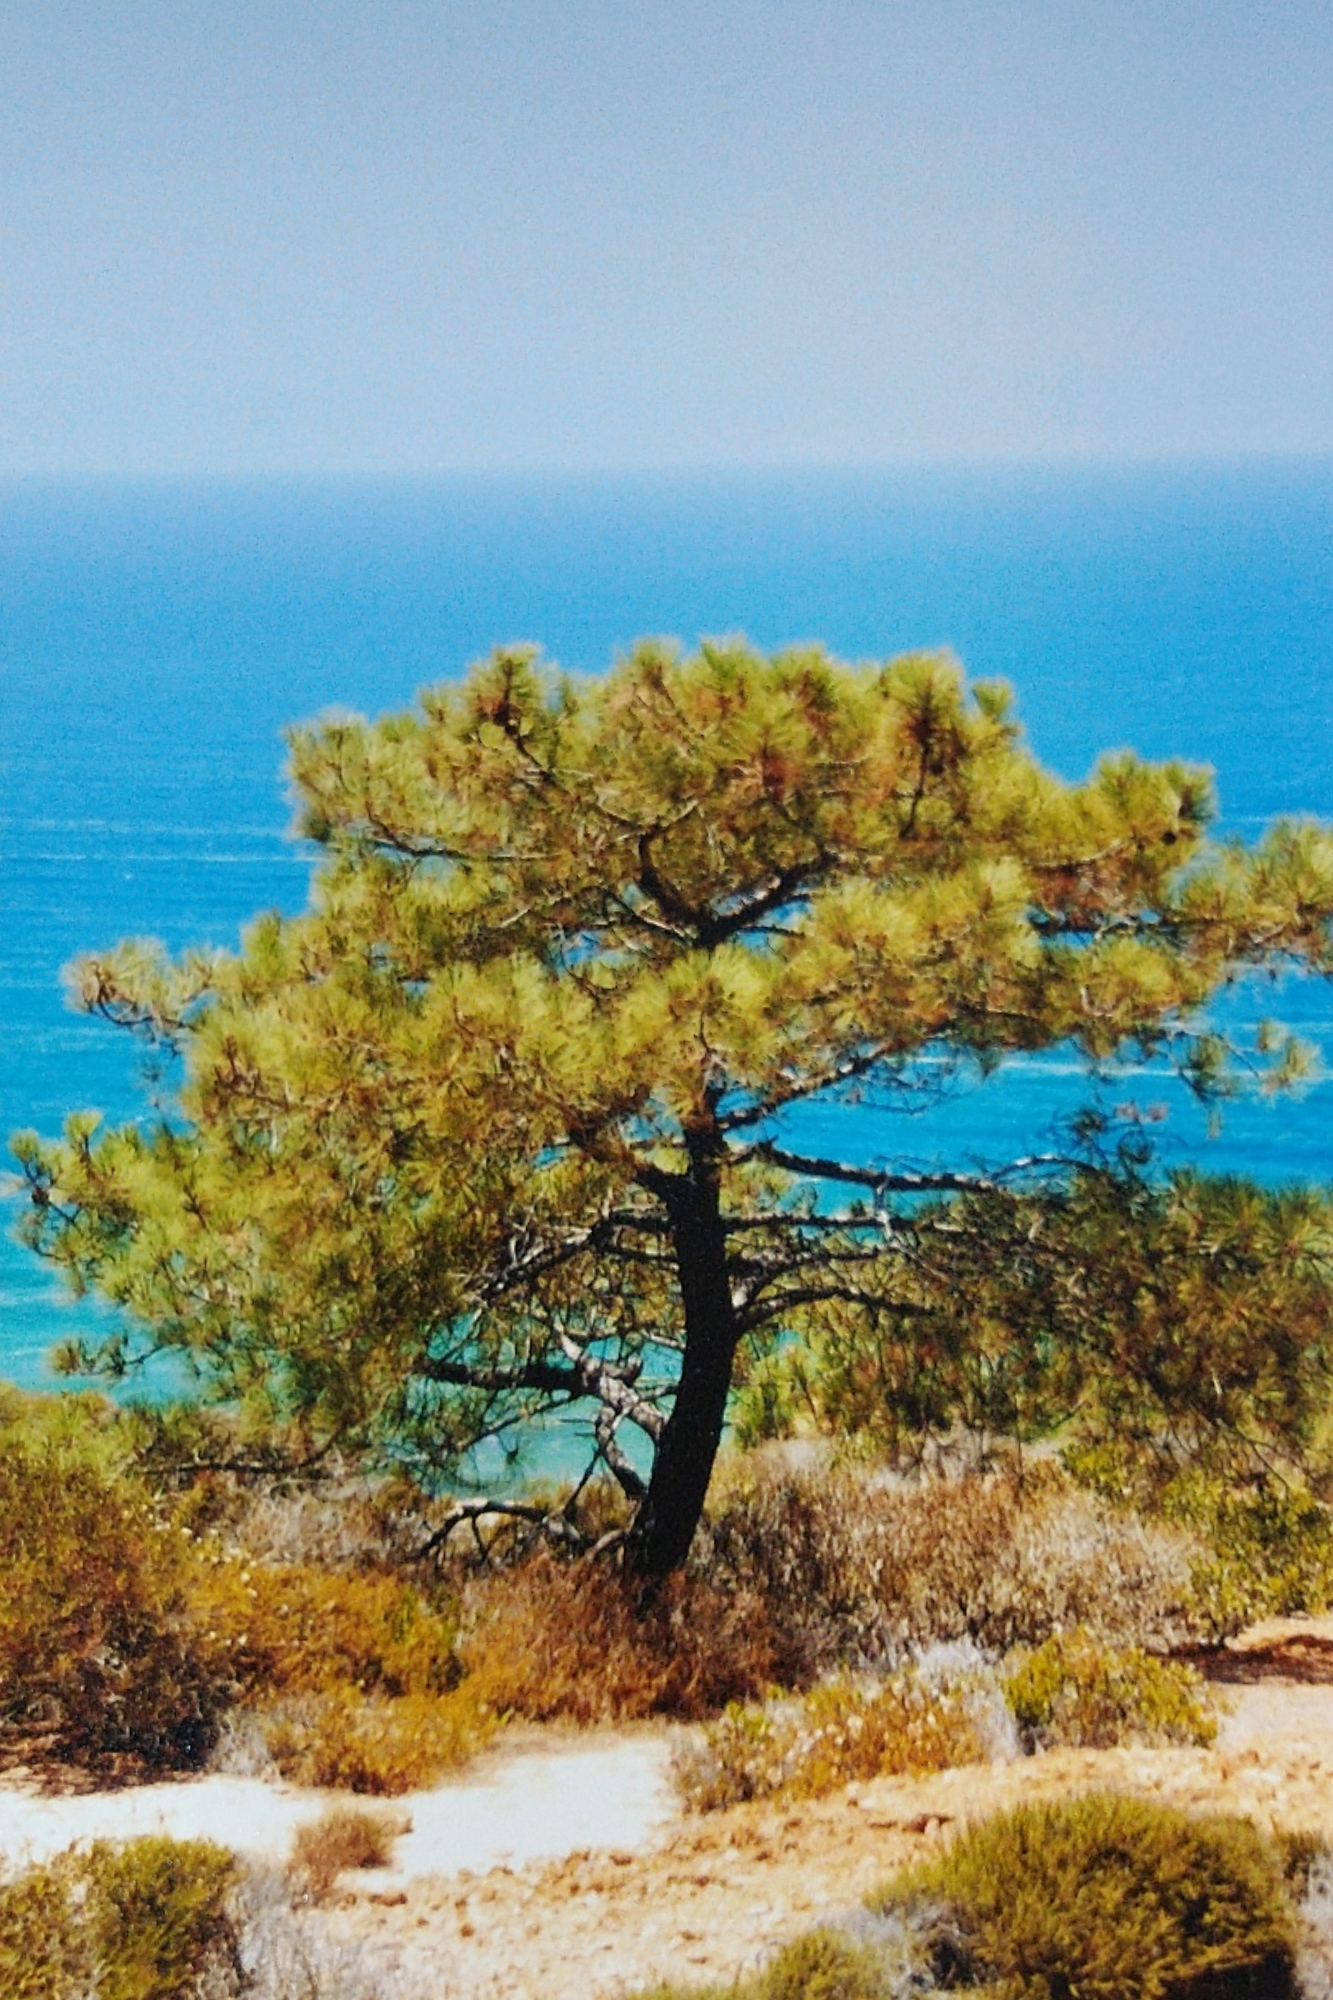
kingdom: Plantae
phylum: Tracheophyta
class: Pinopsida
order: Pinales
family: Pinaceae
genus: Pinus
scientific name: Pinus torreyana
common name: Torrey pine
